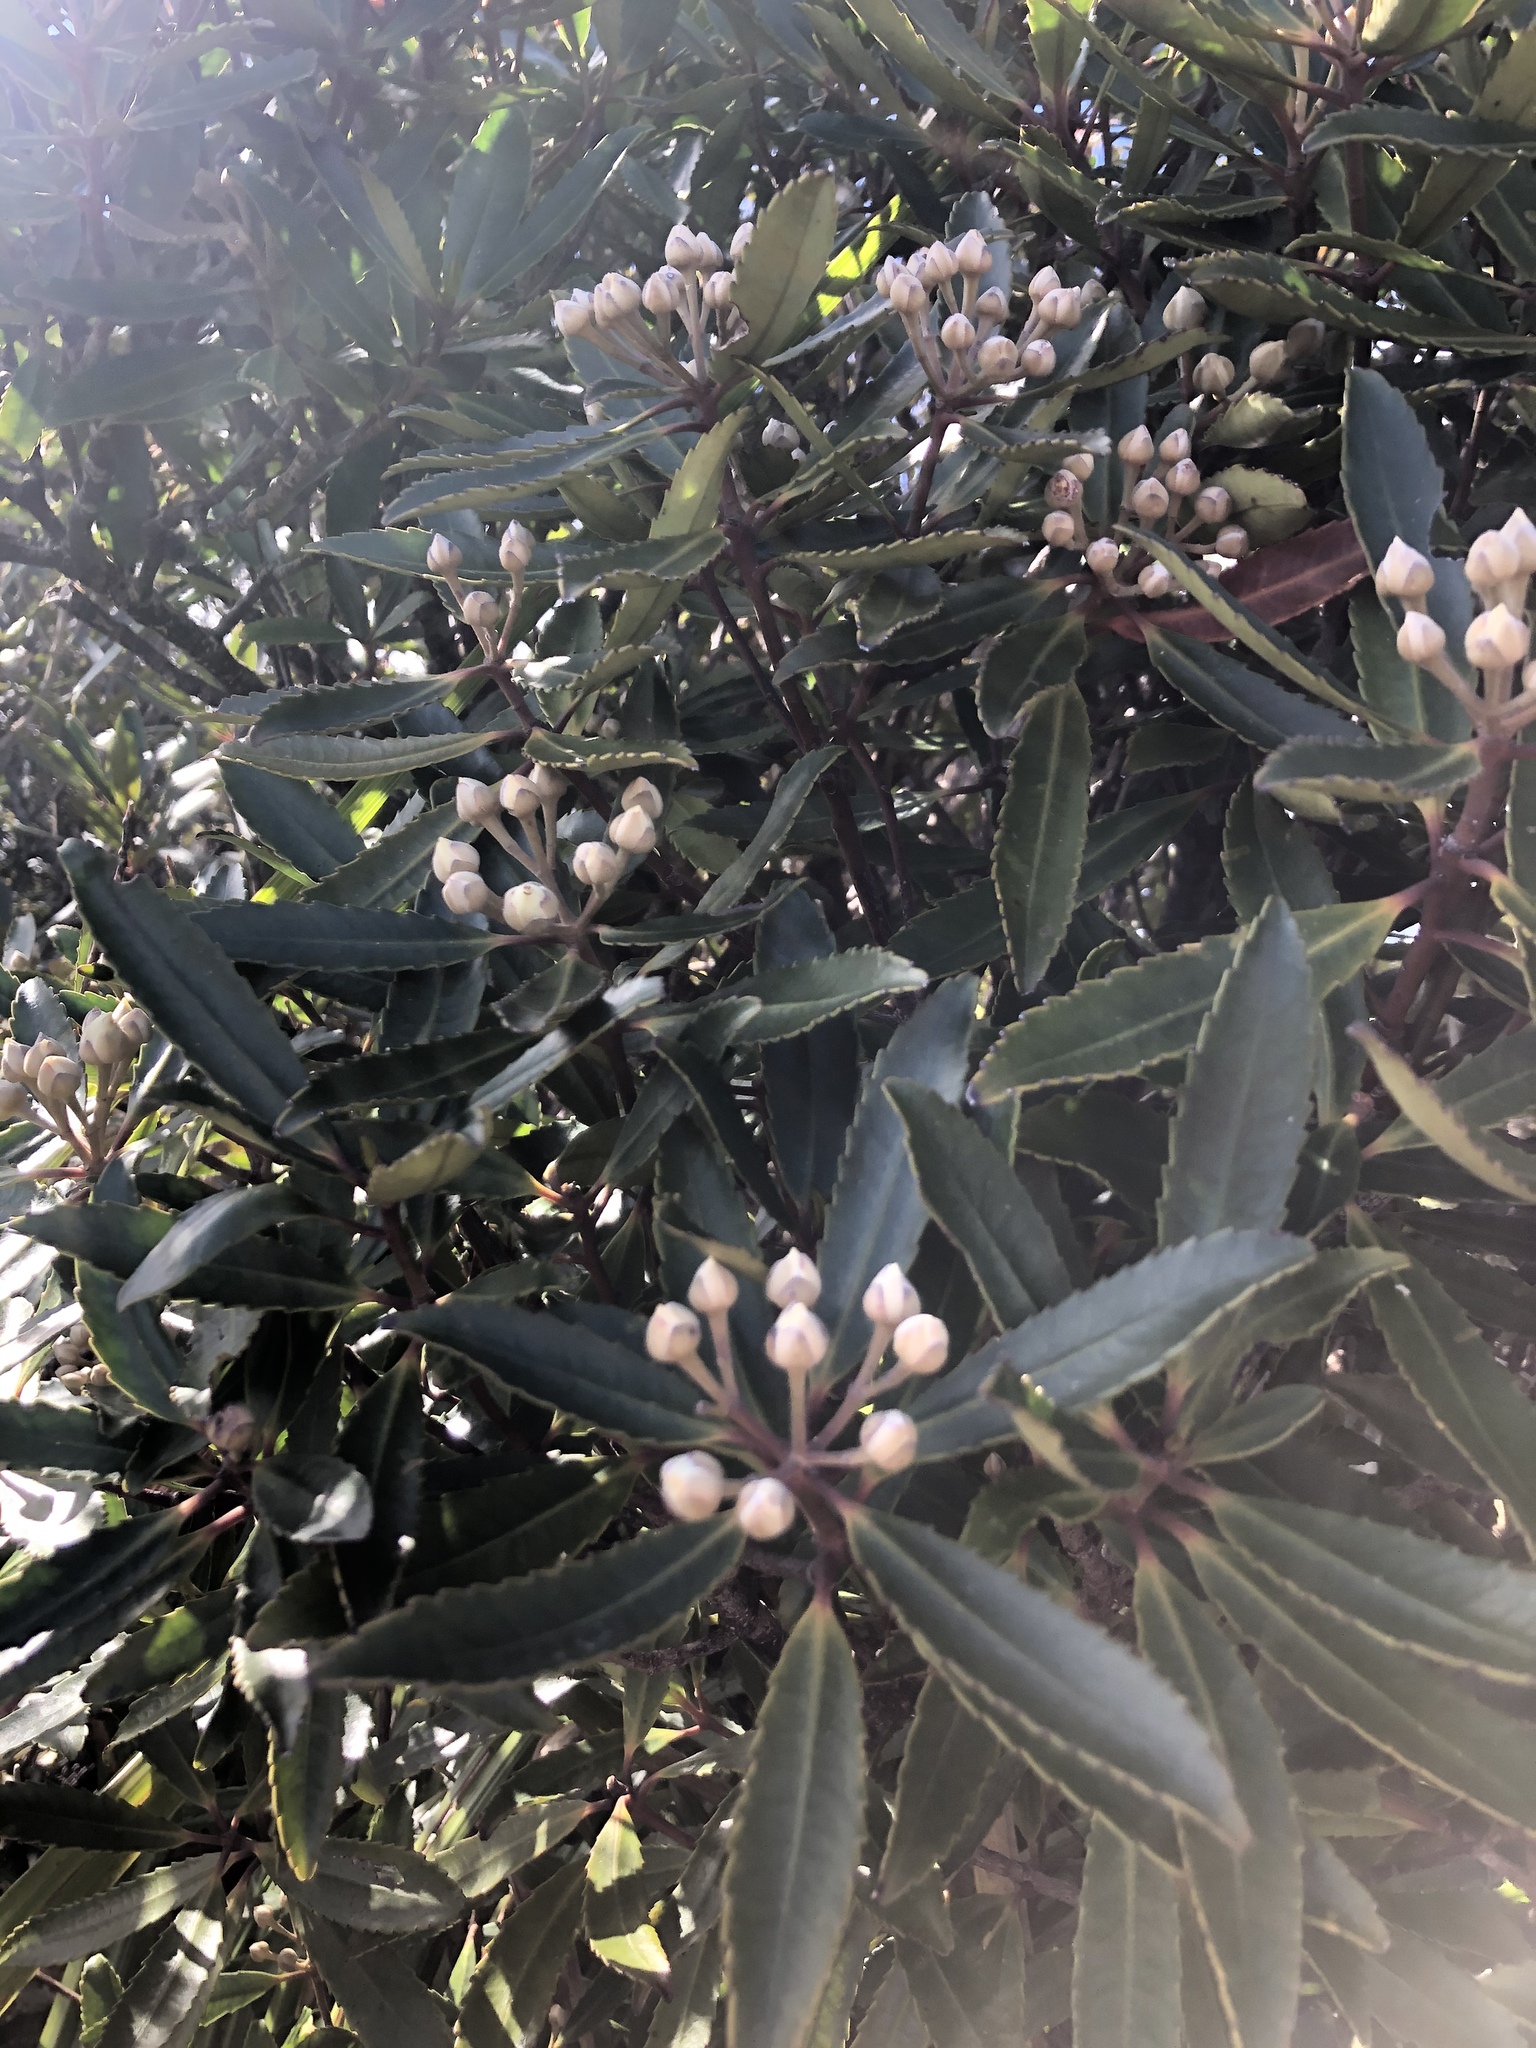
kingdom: Plantae
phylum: Tracheophyta
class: Magnoliopsida
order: Crossosomatales
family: Ixerbaceae
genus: Ixerba
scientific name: Ixerba brexioides
